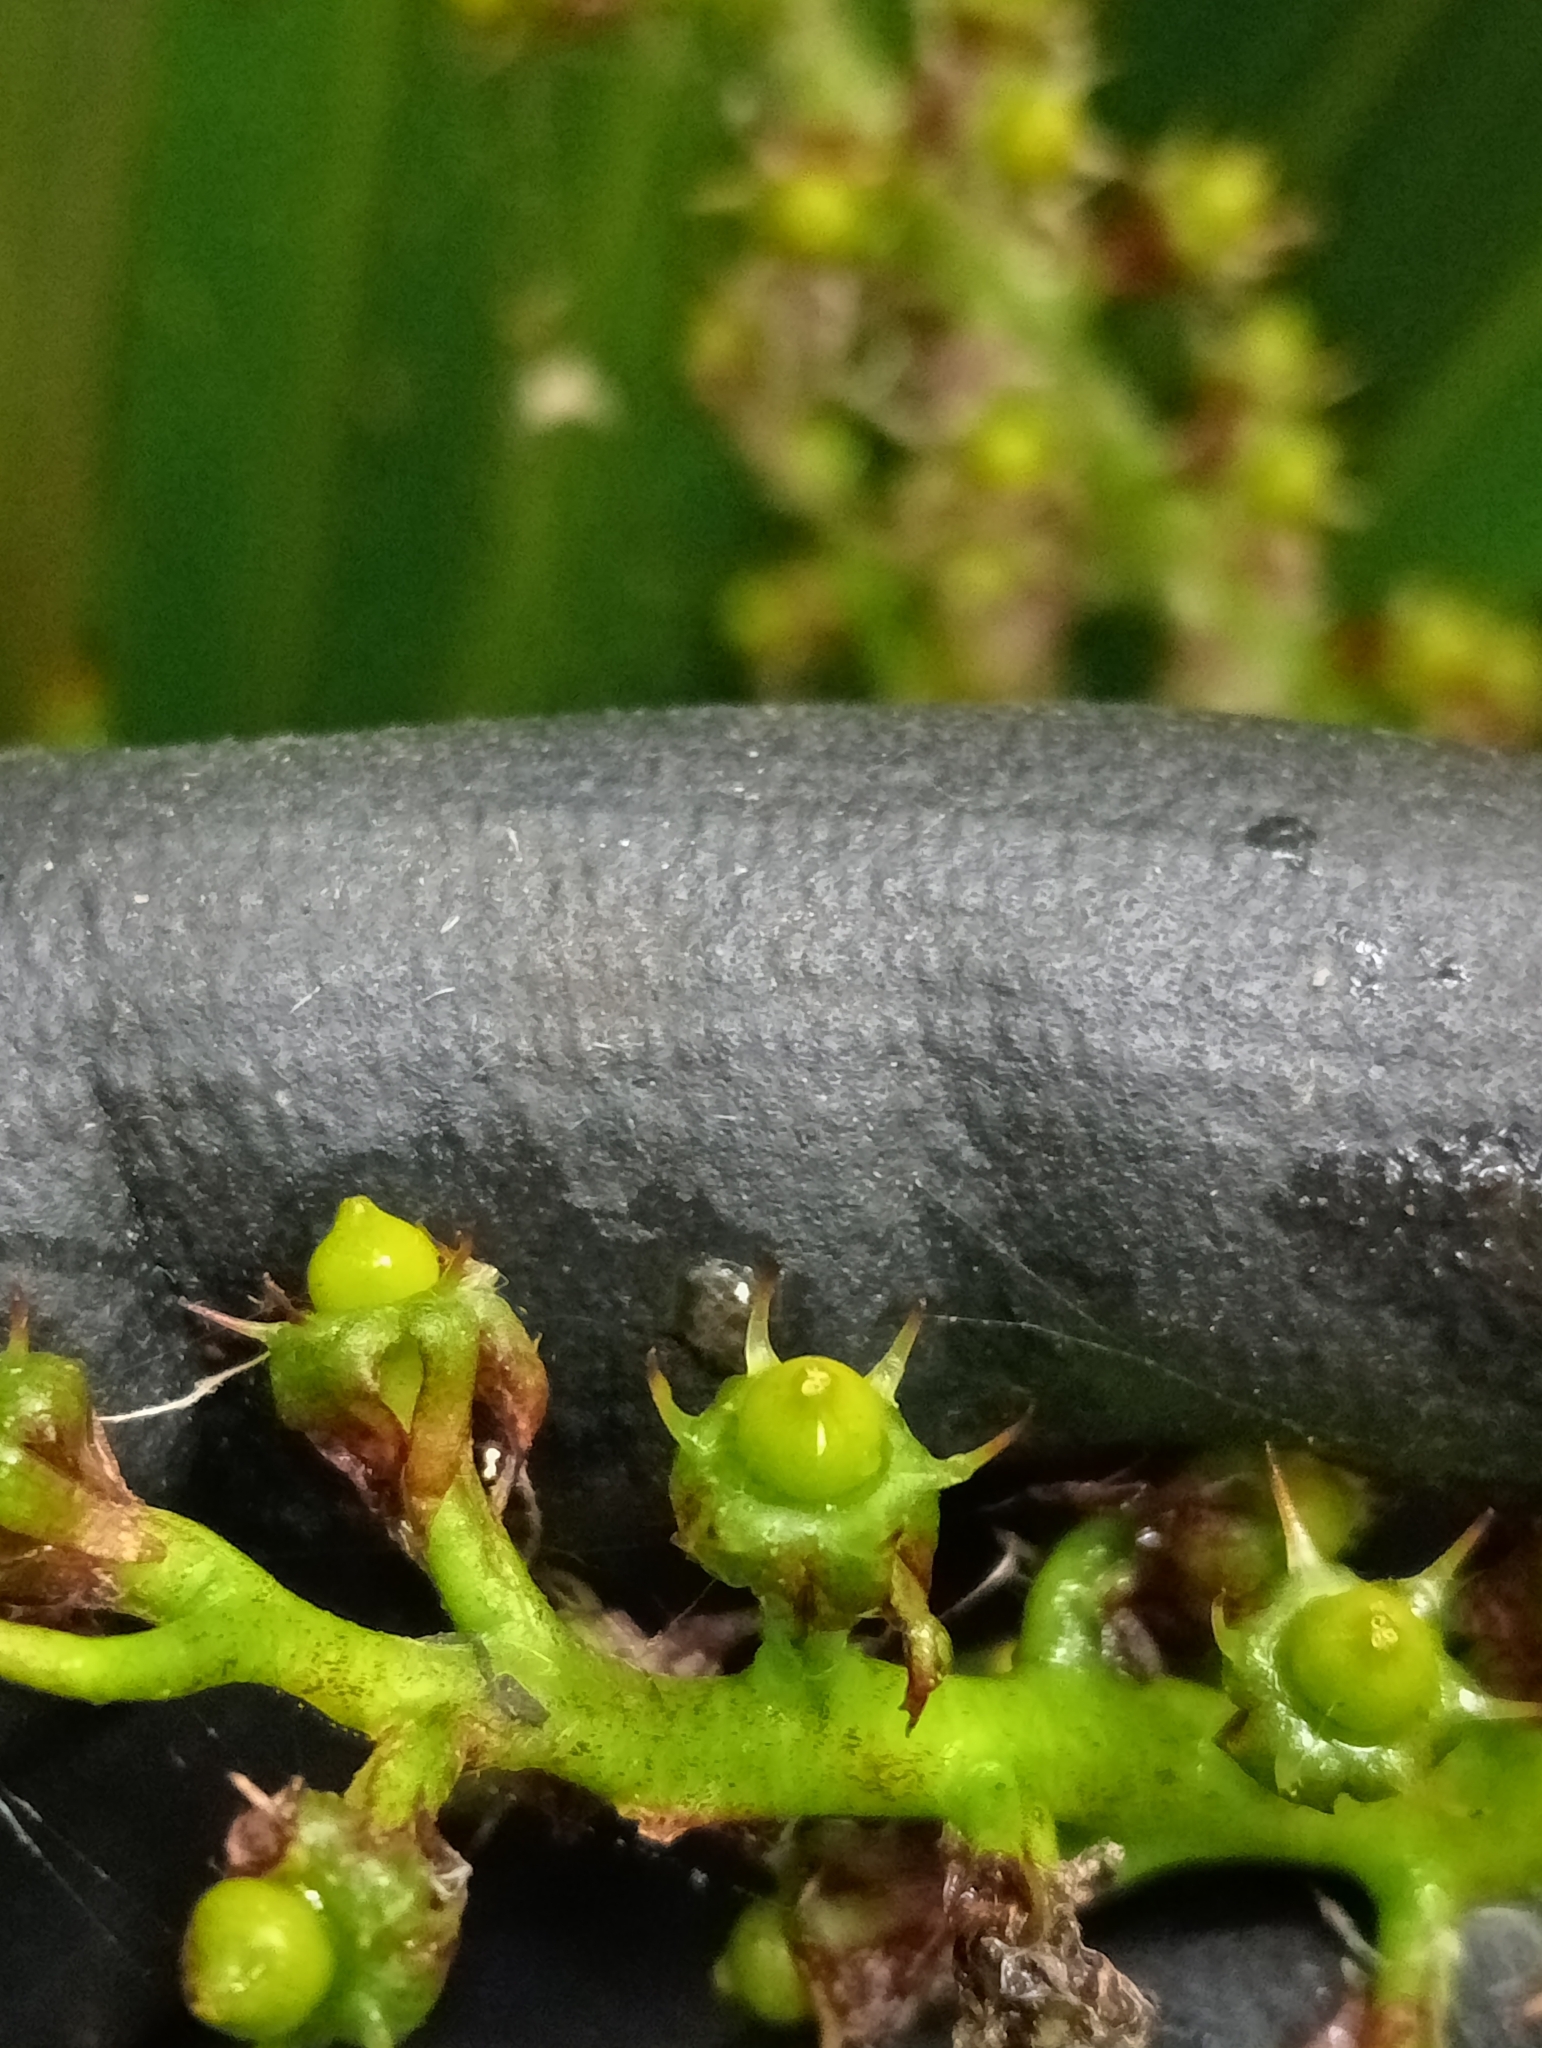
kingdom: Plantae
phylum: Tracheophyta
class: Liliopsida
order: Asparagales
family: Asteliaceae
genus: Astelia
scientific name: Astelia fragrans
